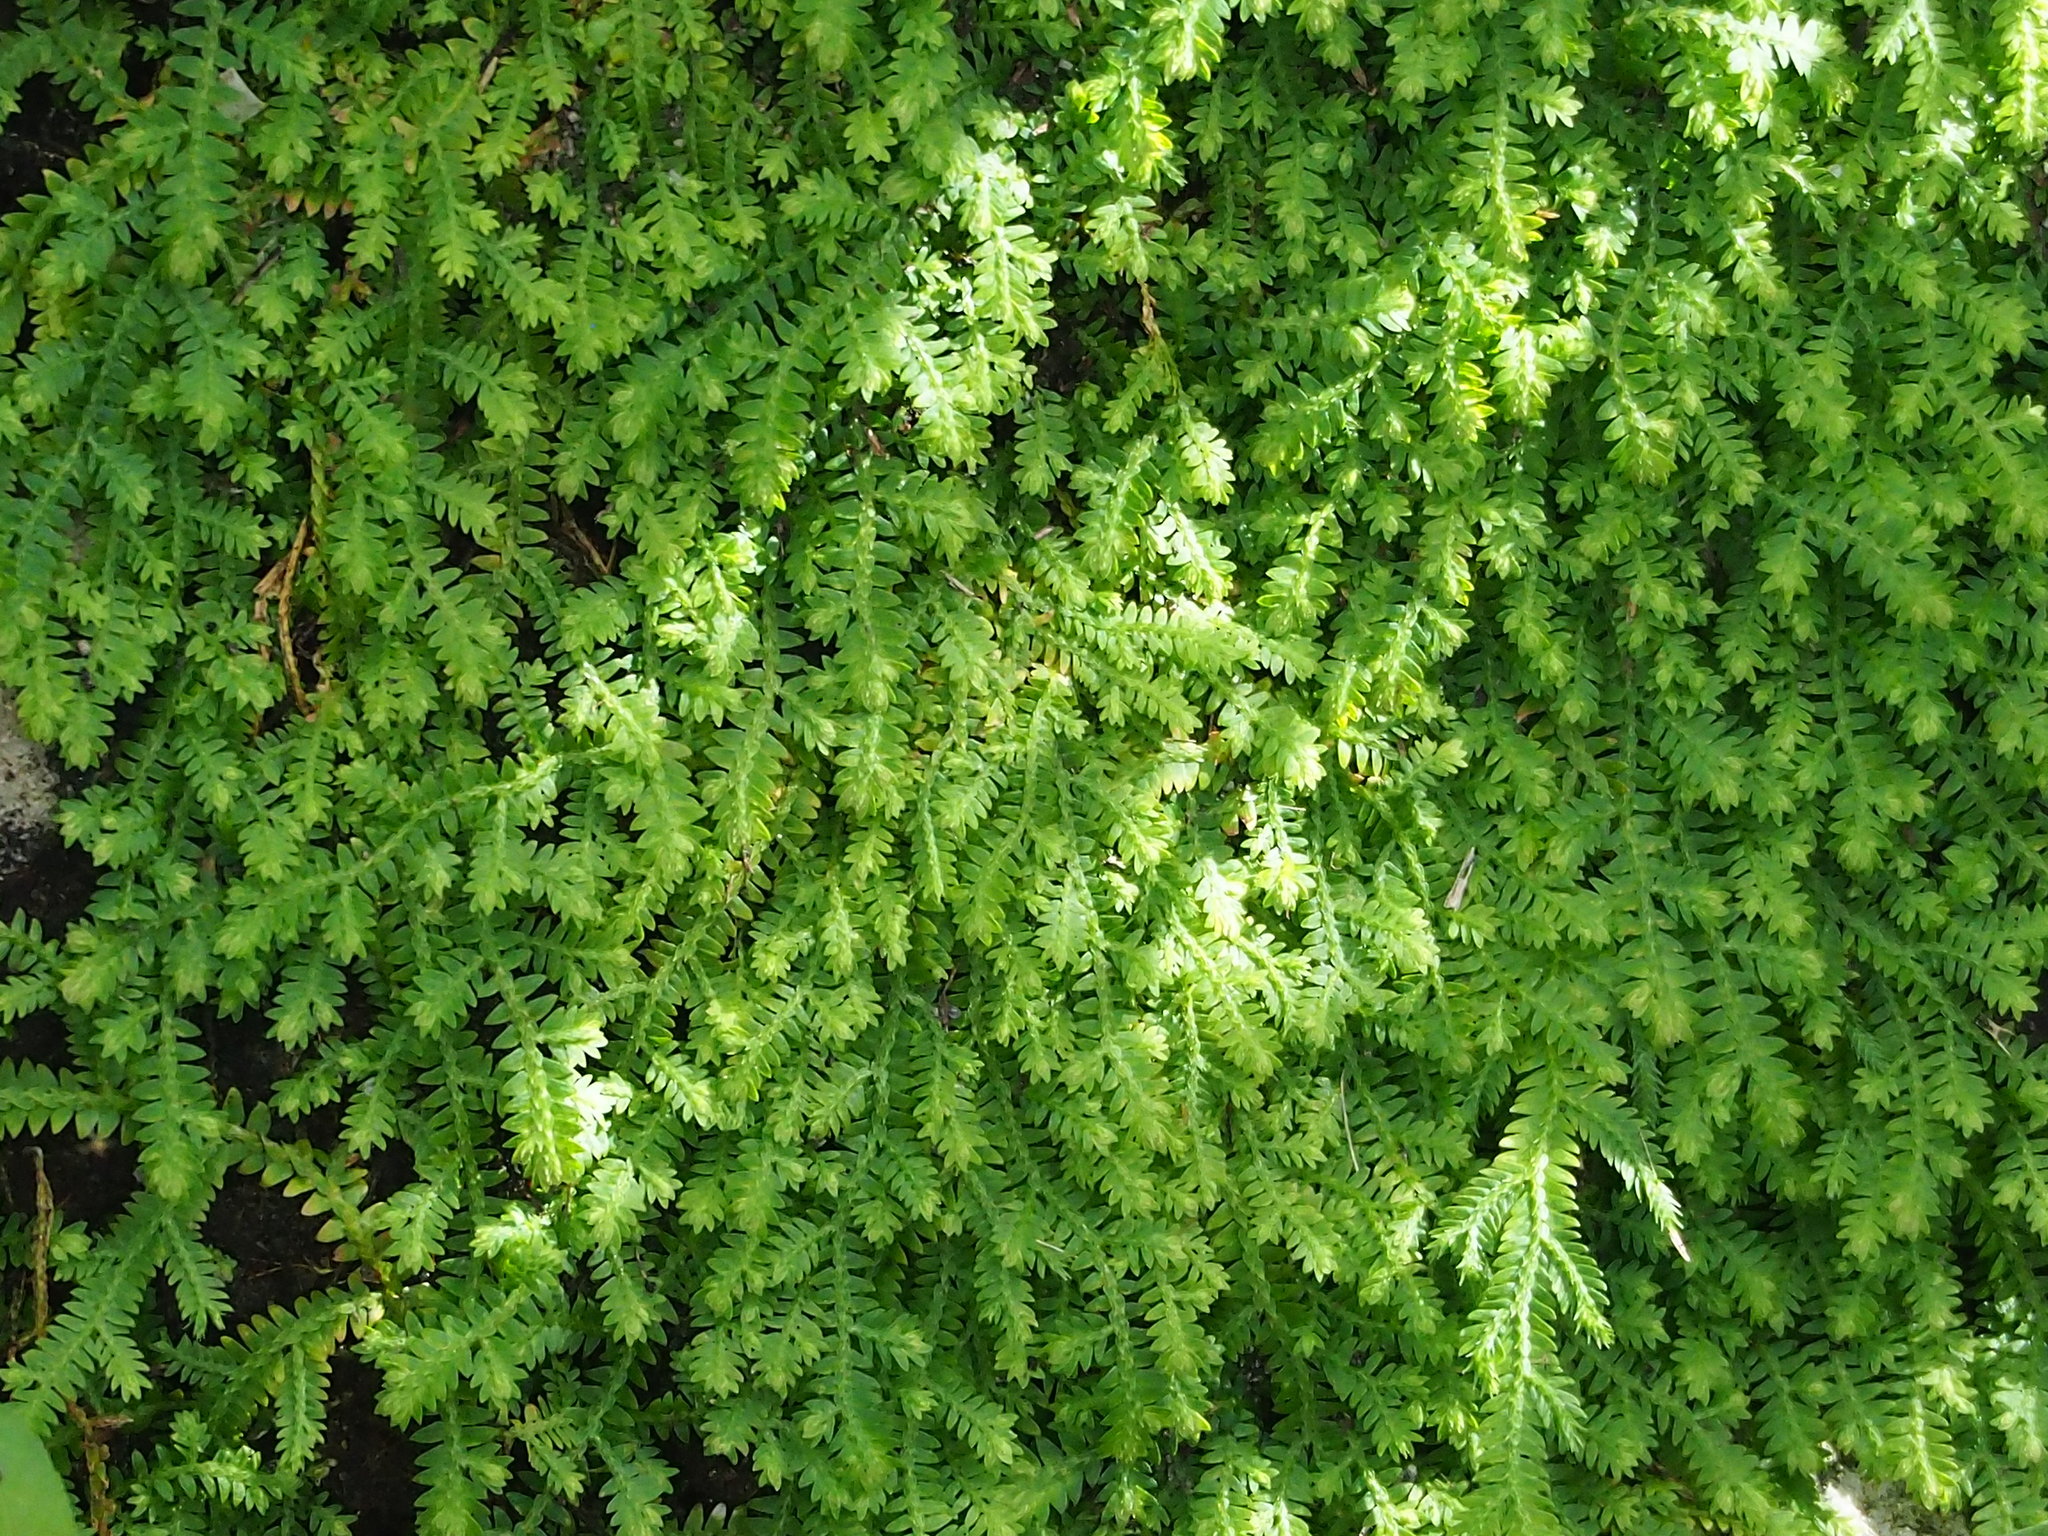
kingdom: Plantae
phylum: Tracheophyta
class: Lycopodiopsida
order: Selaginellales
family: Selaginellaceae
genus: Selaginella
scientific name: Selaginella repanda
